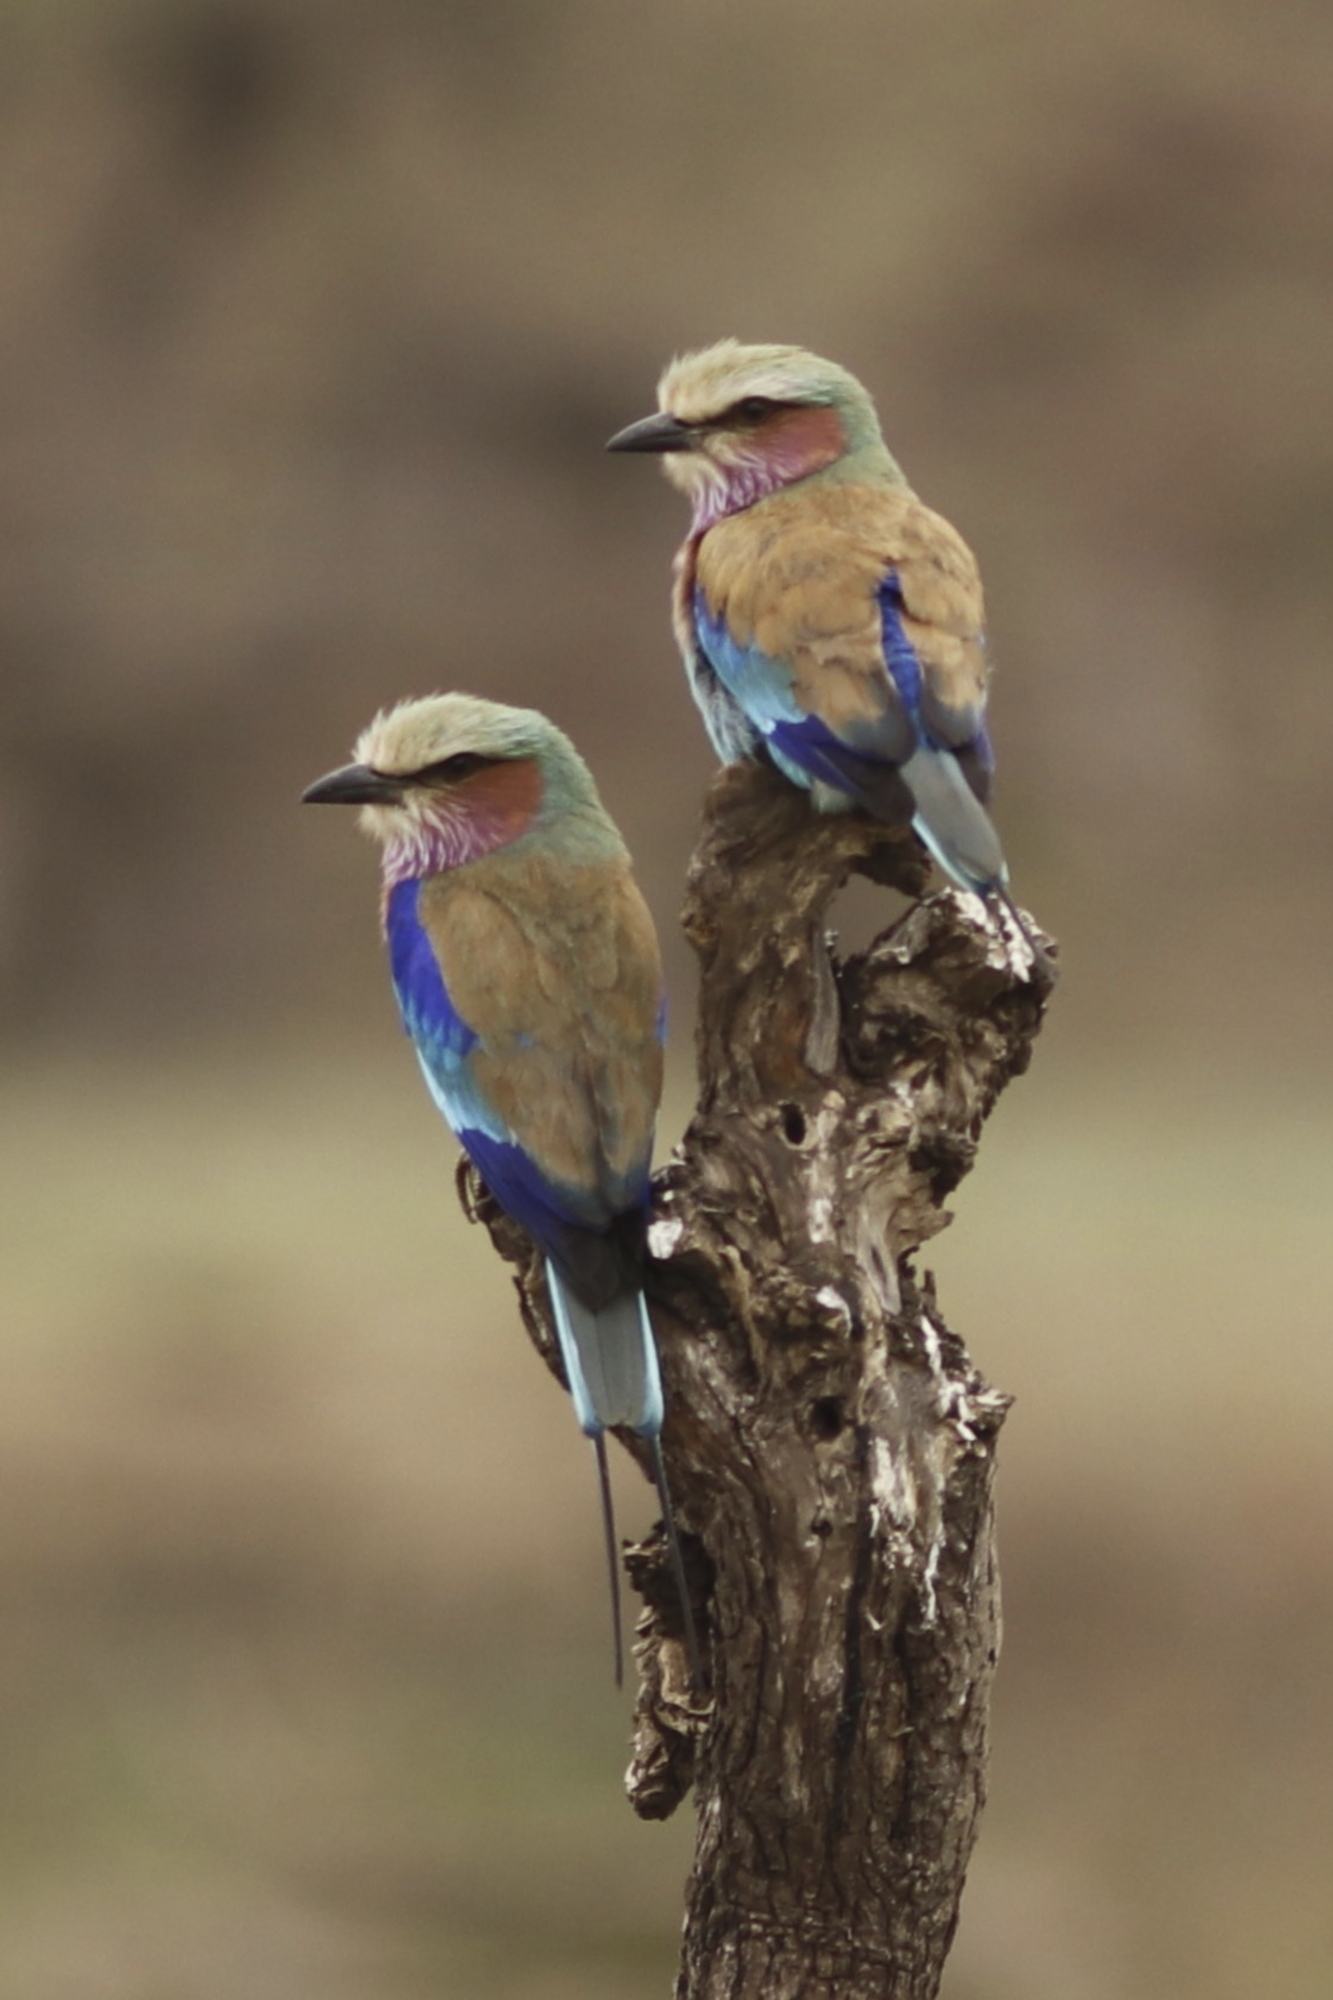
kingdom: Animalia
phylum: Chordata
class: Aves
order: Coraciiformes
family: Coraciidae
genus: Coracias
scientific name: Coracias caudatus
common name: Lilac-breasted roller
